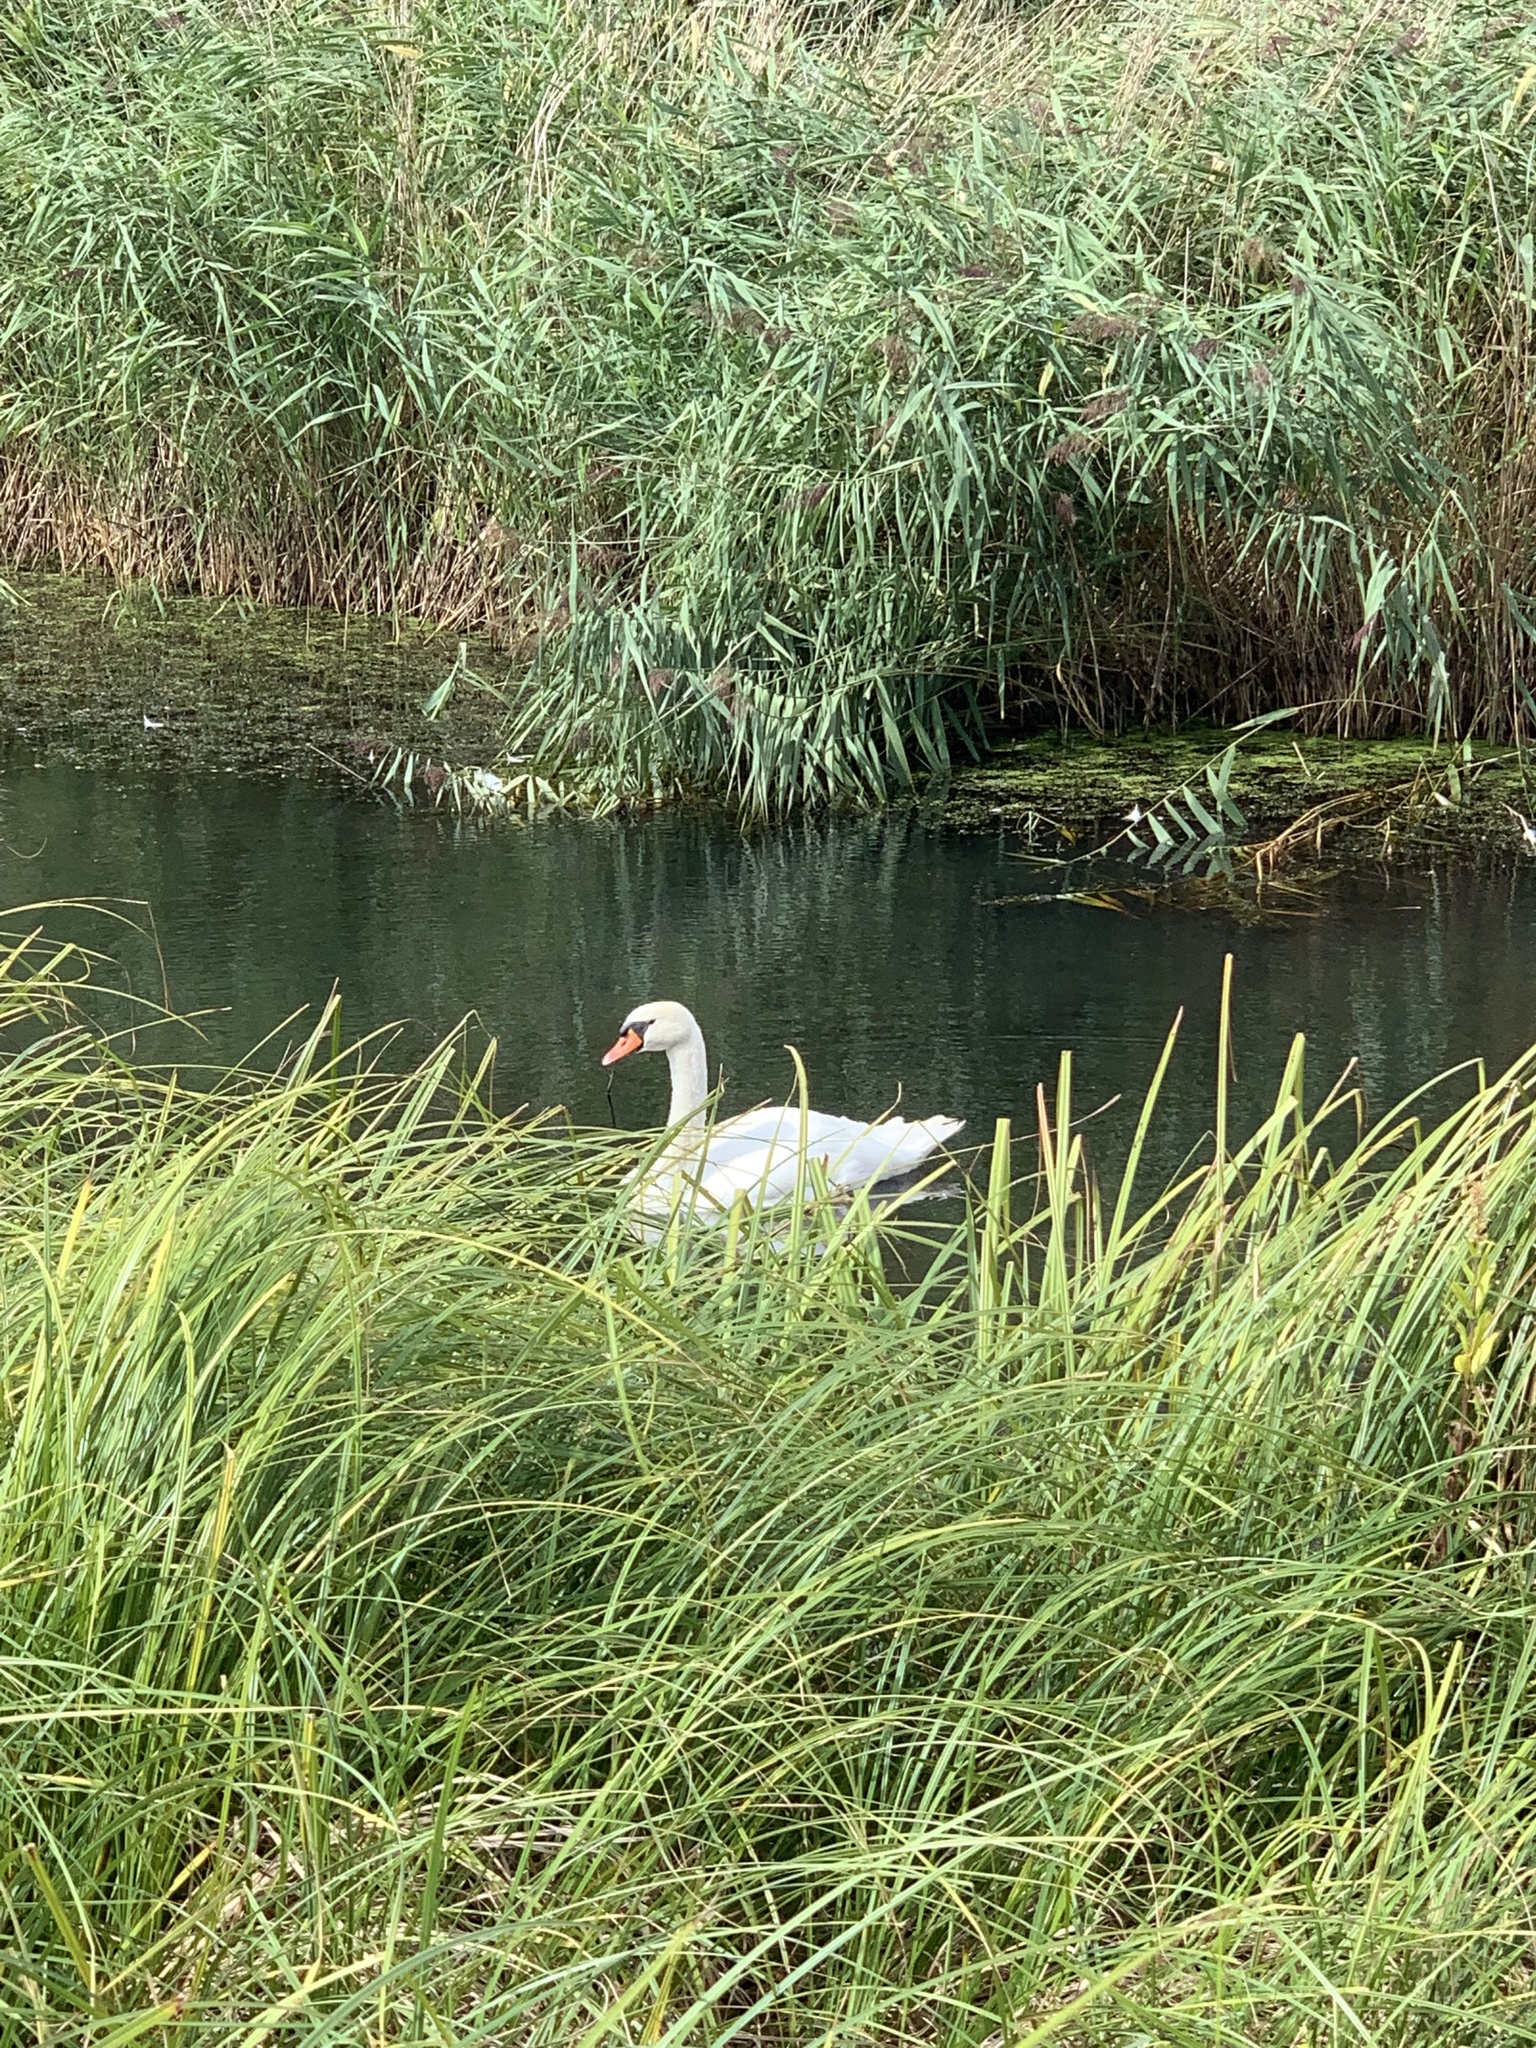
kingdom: Animalia
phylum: Chordata
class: Aves
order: Anseriformes
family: Anatidae
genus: Cygnus
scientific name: Cygnus olor
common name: Mute swan
